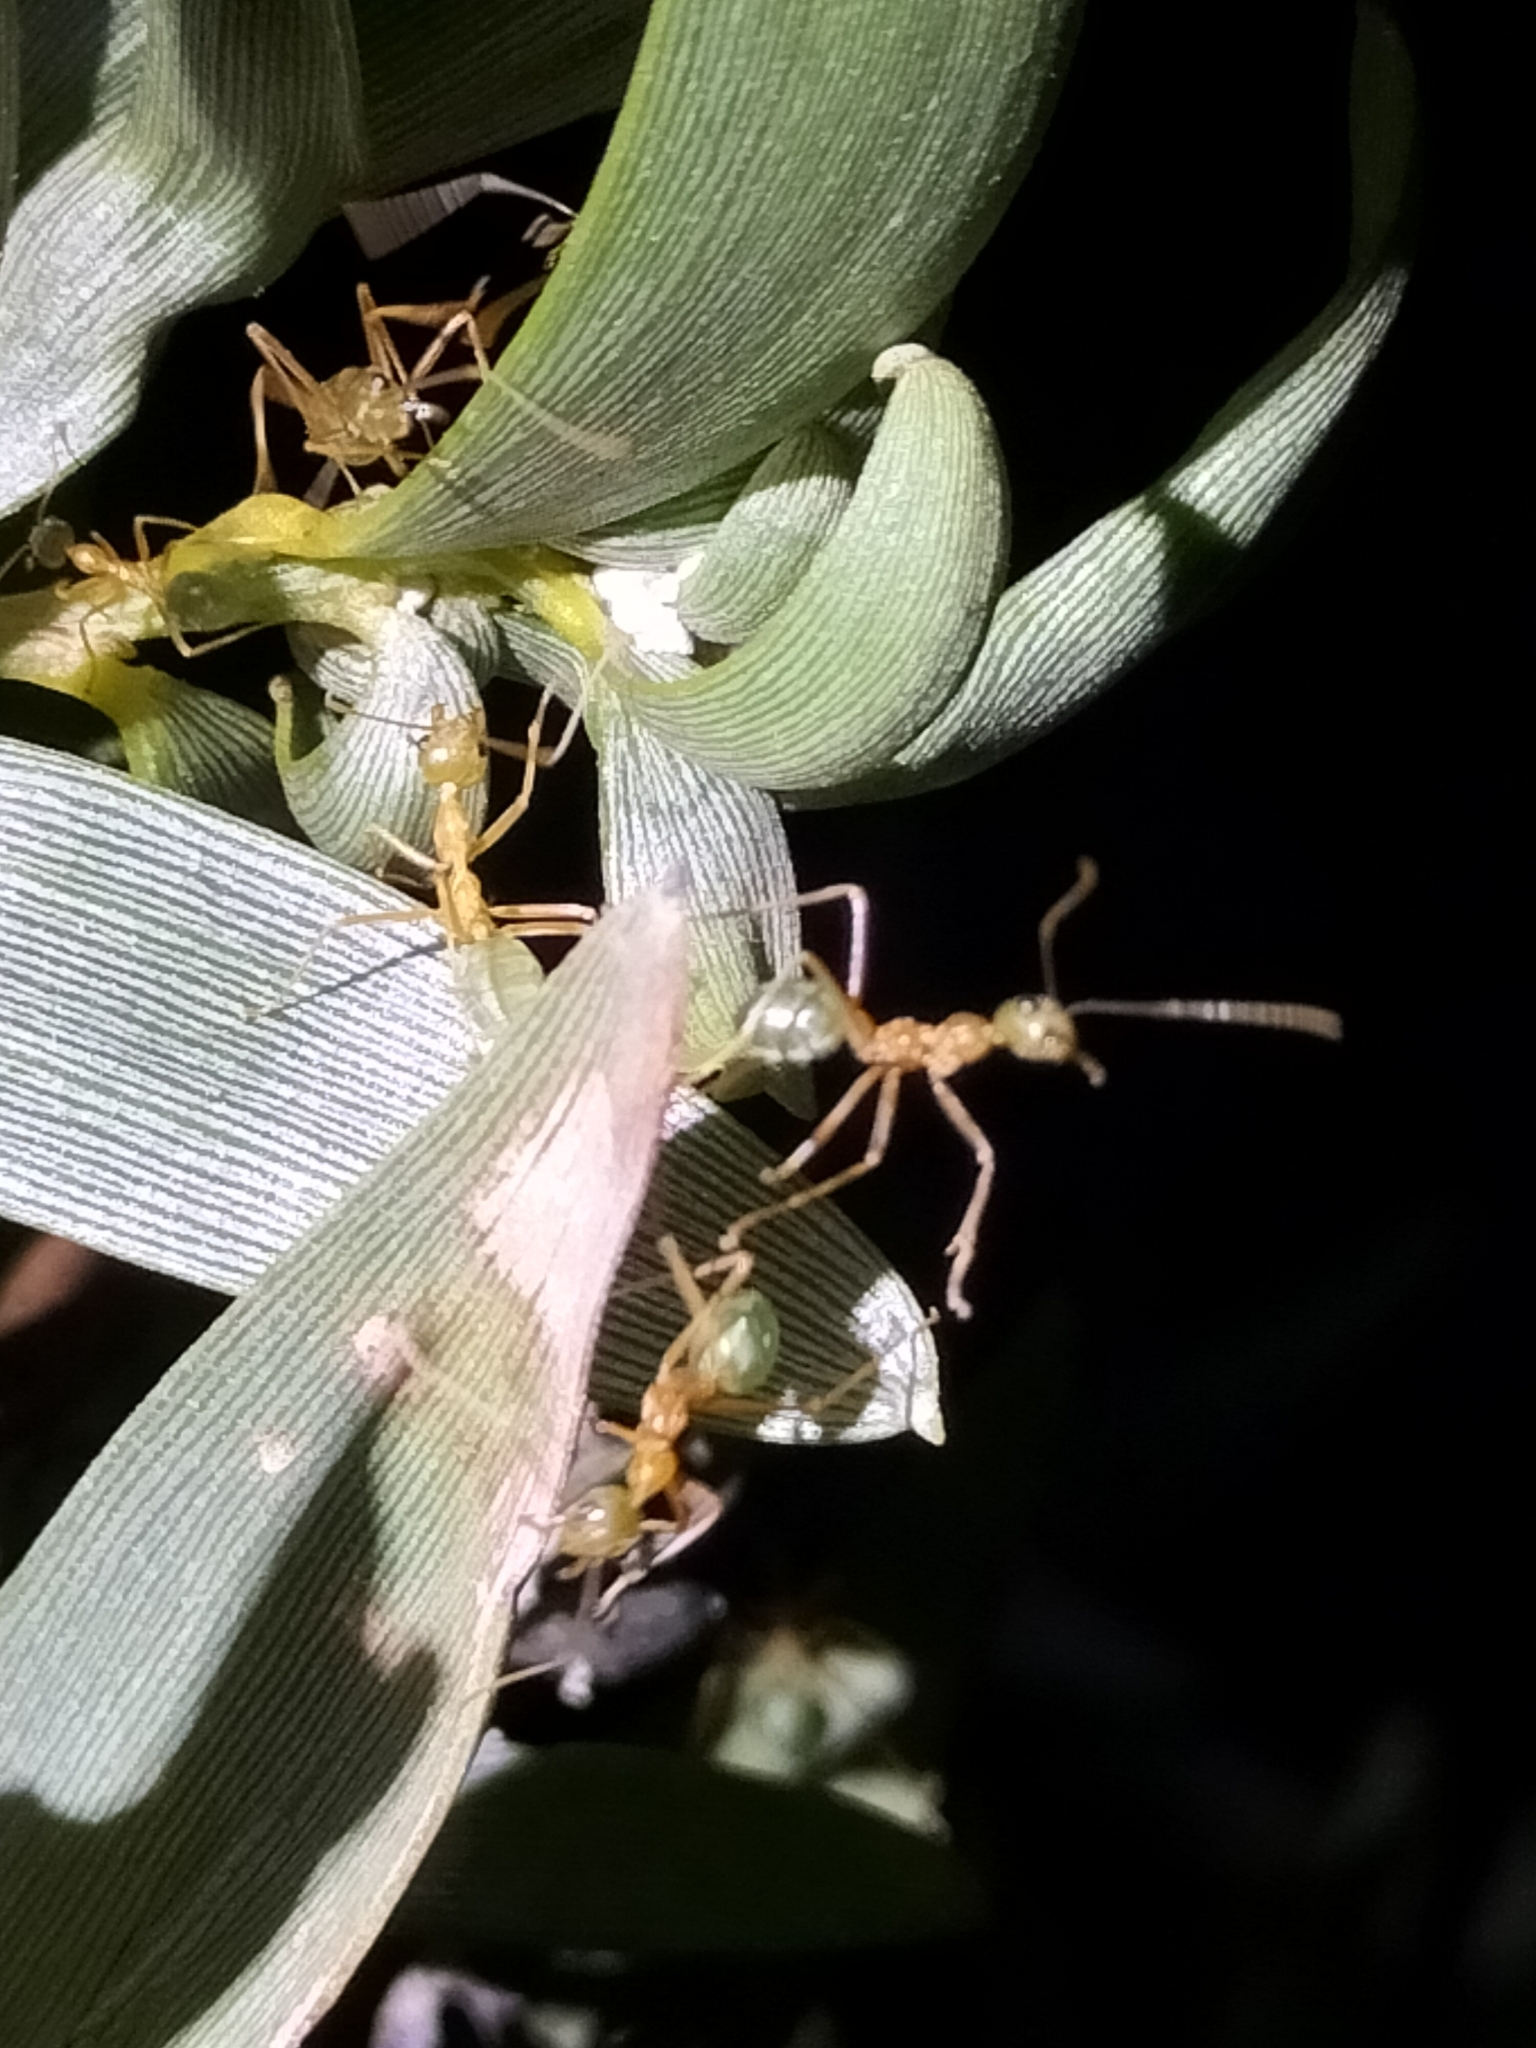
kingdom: Animalia
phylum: Arthropoda
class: Insecta
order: Hymenoptera
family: Formicidae
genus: Oecophylla
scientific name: Oecophylla smaragdina
